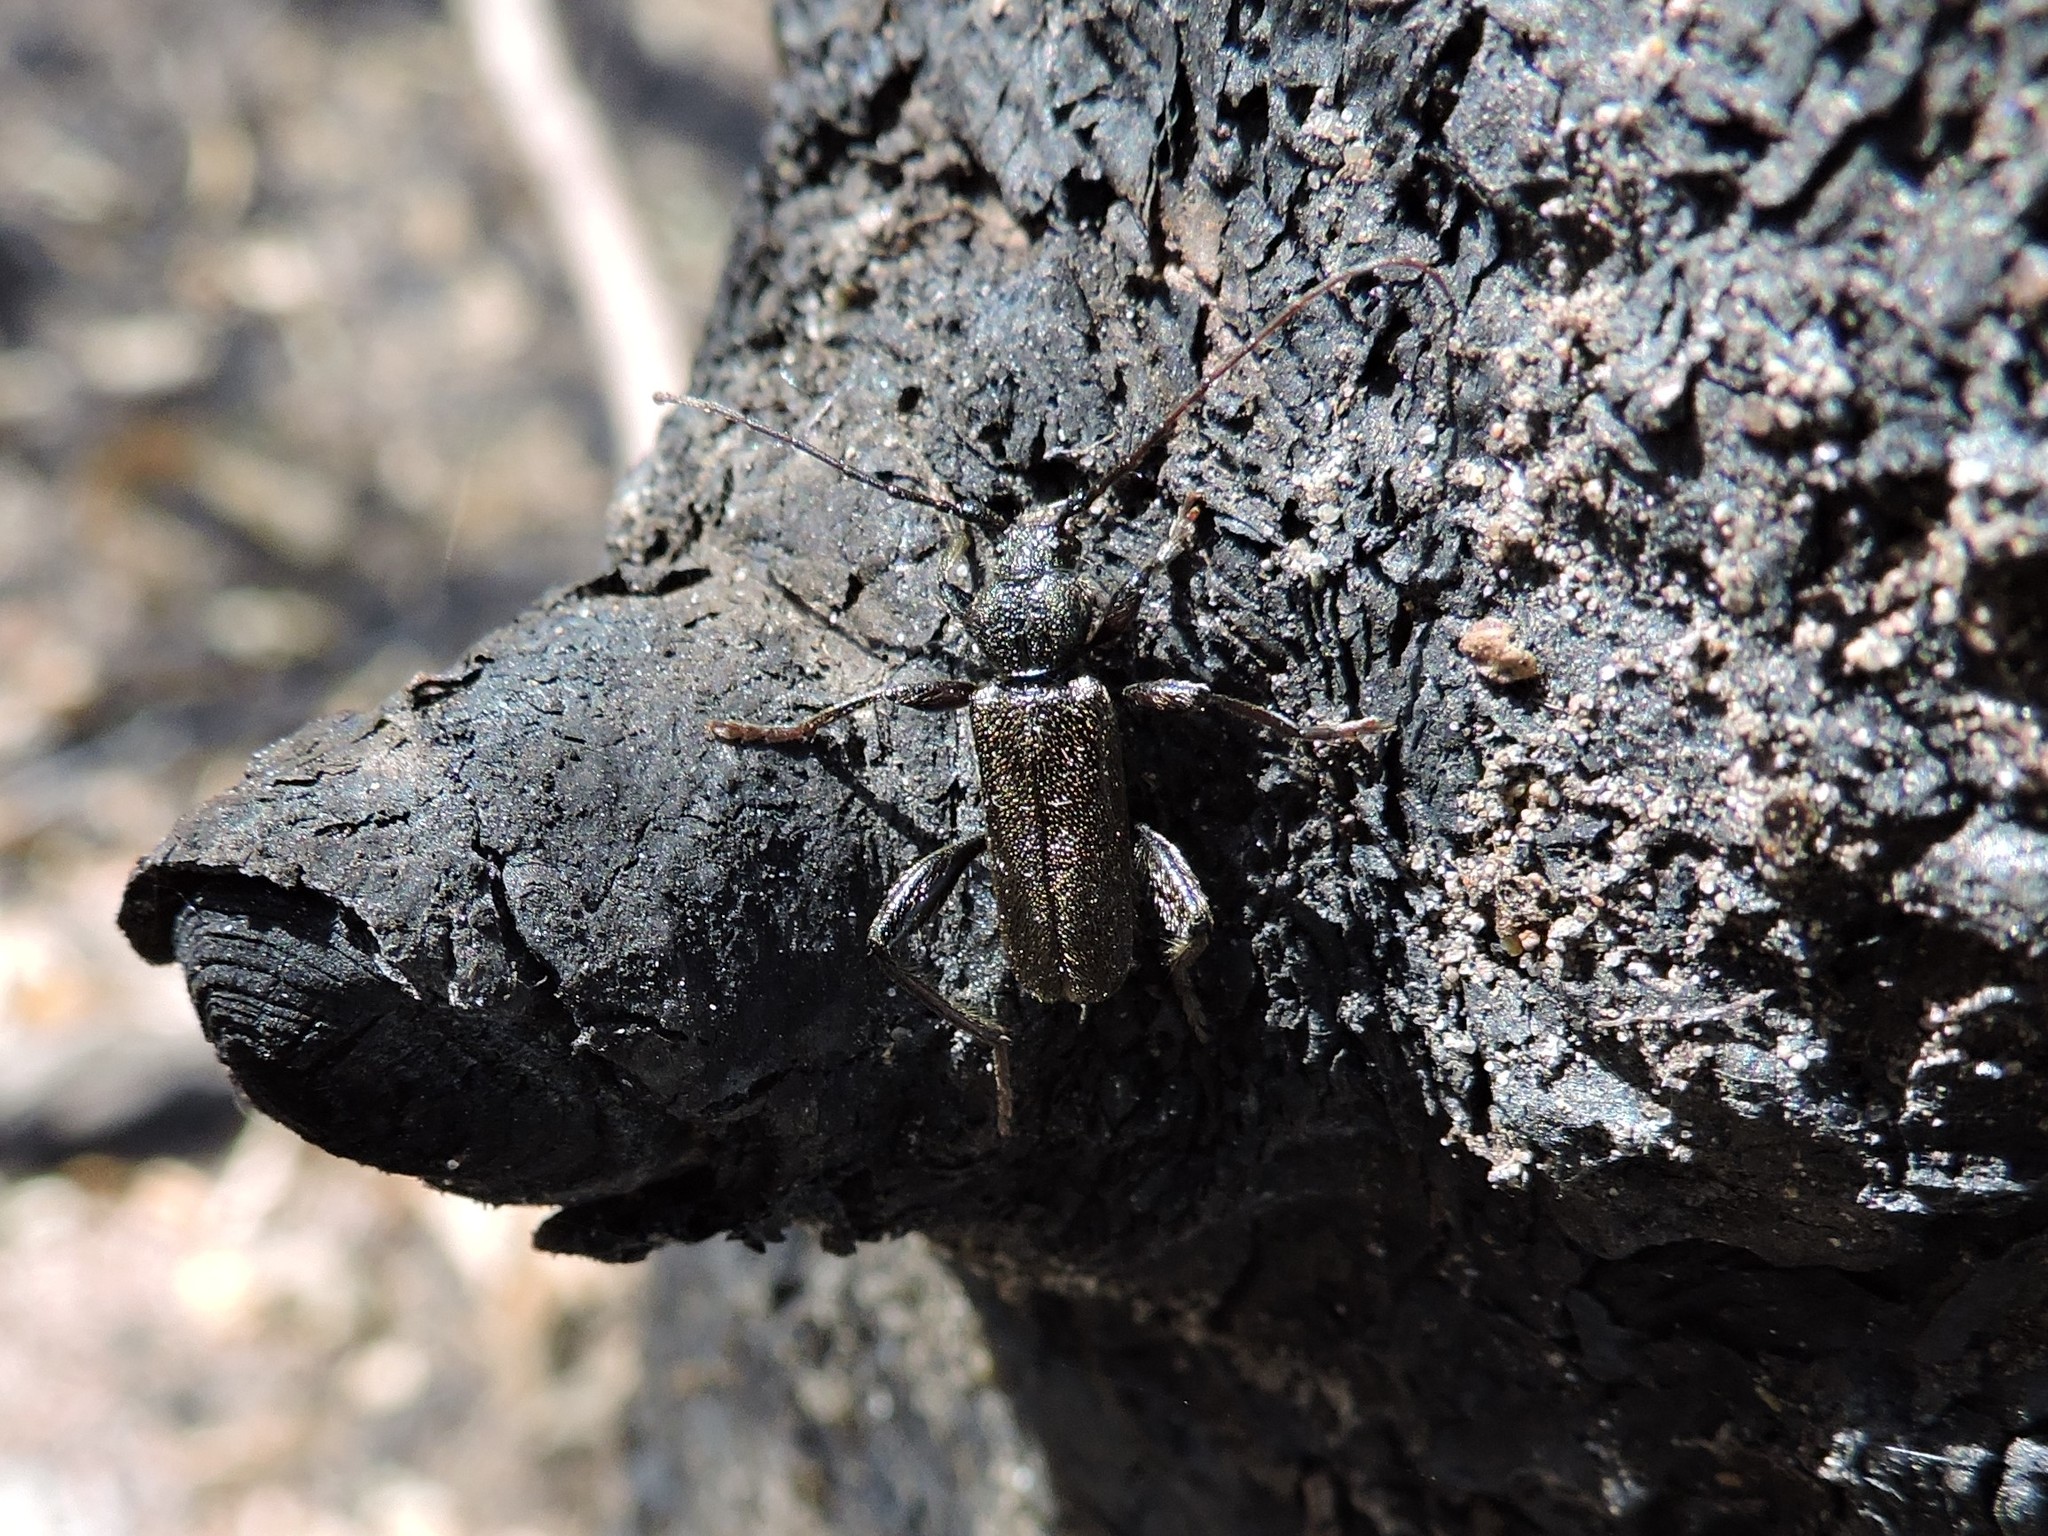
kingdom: Animalia
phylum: Arthropoda
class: Insecta
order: Coleoptera
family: Cerambycidae
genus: Callidium
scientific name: Callidium coriaceum
